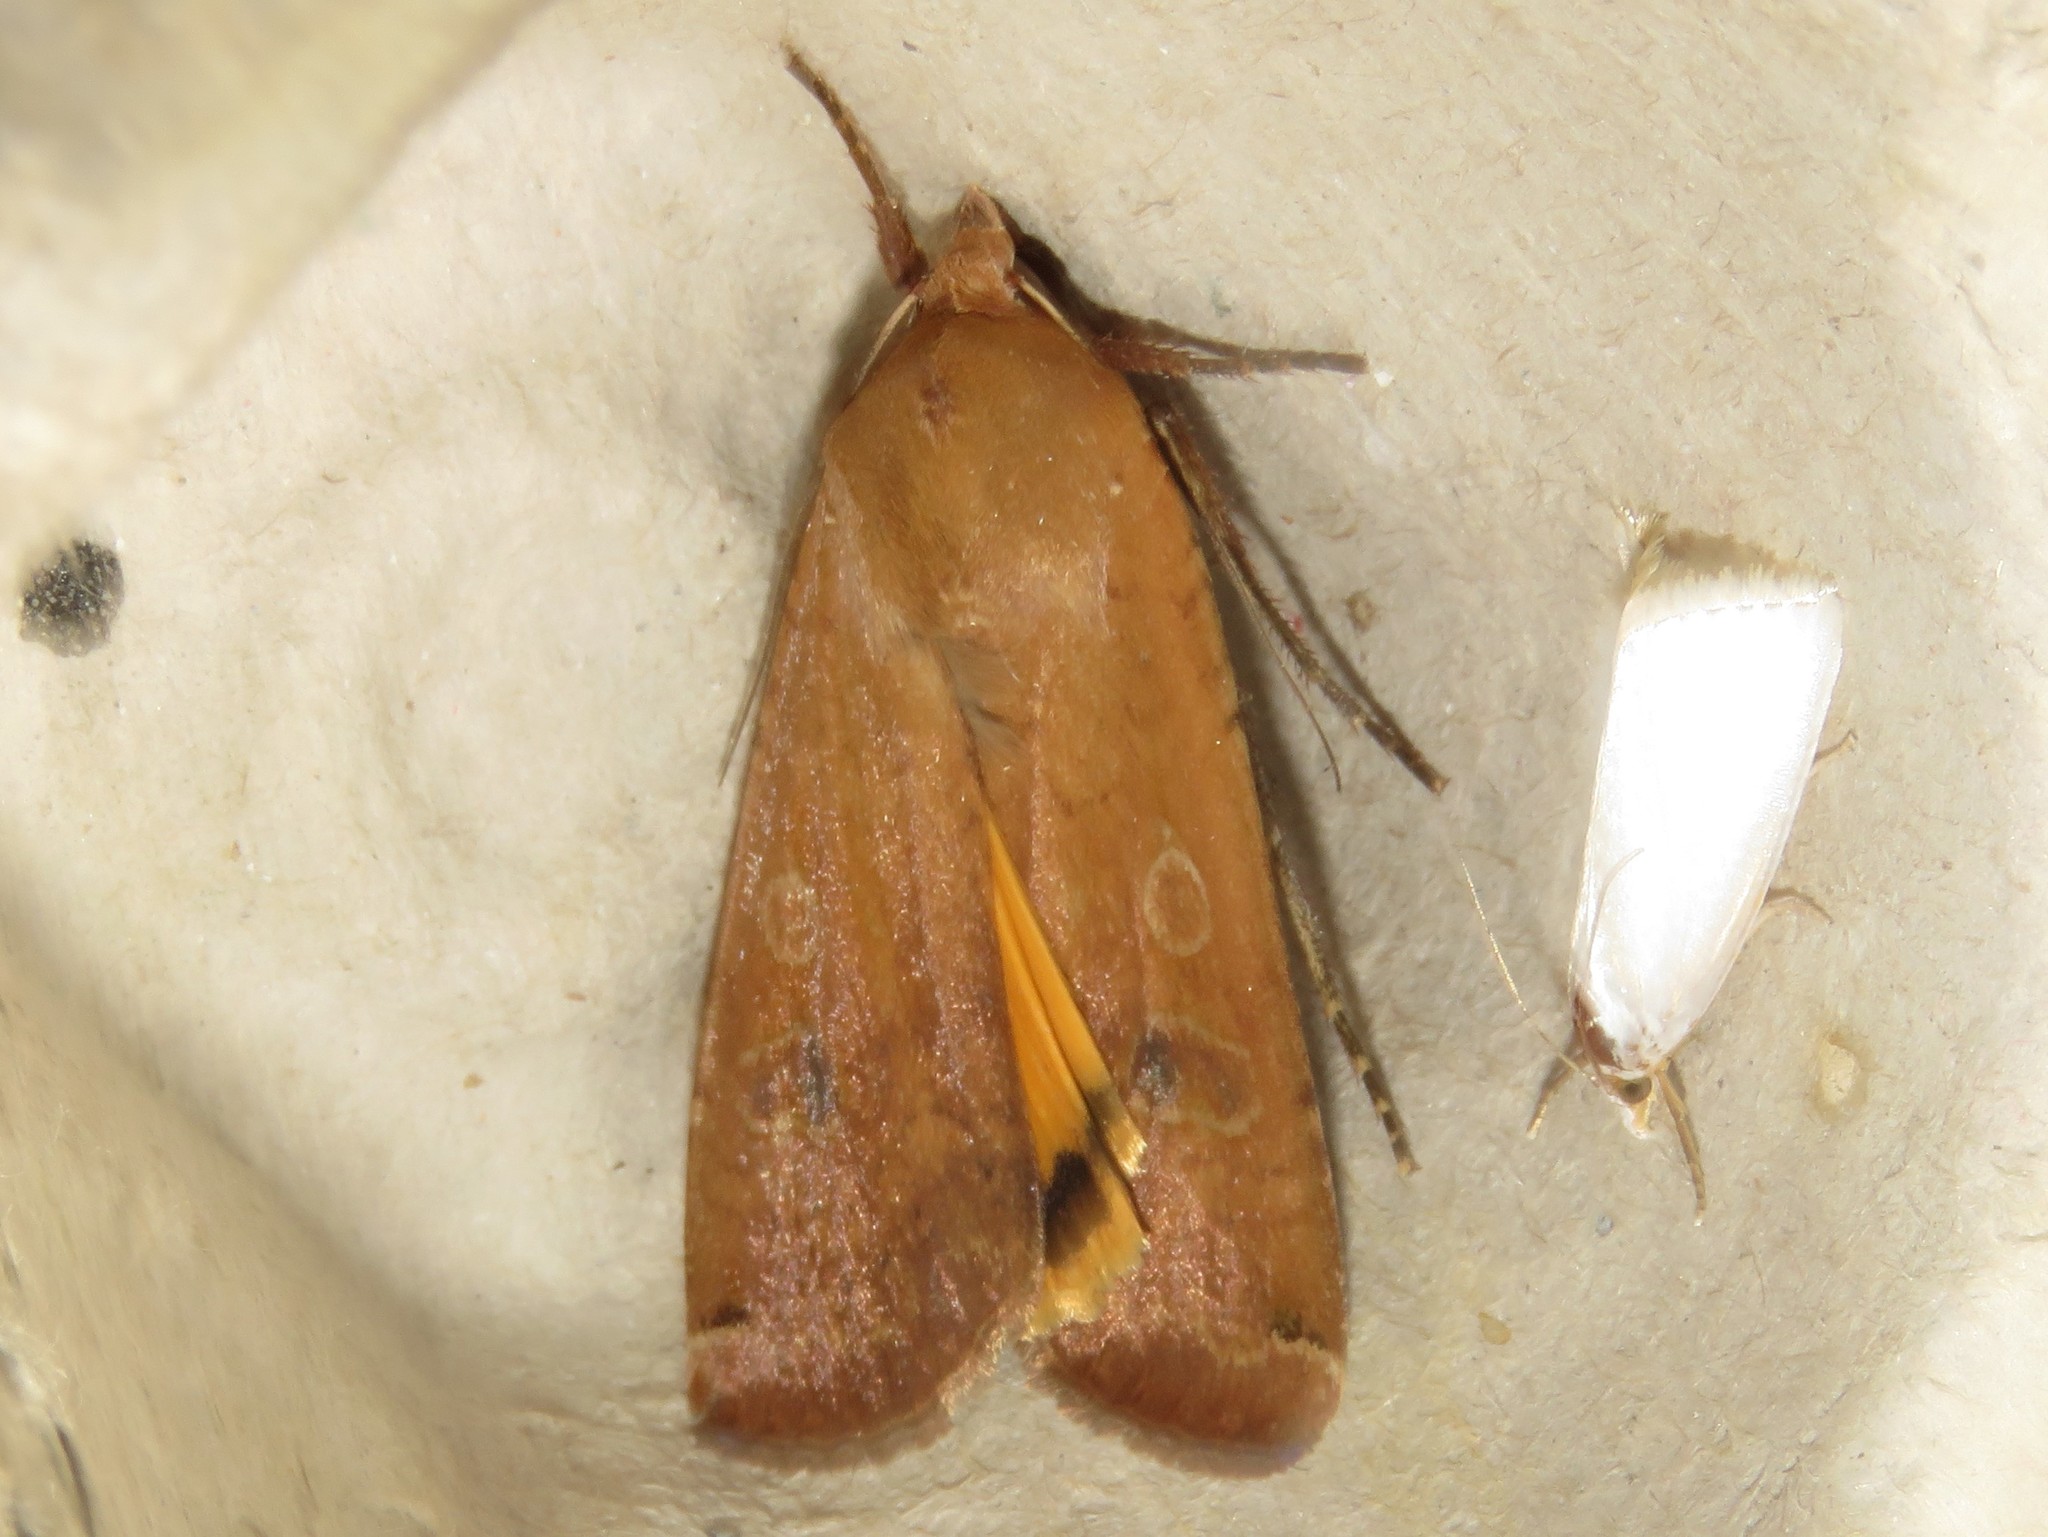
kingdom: Animalia
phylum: Arthropoda
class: Insecta
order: Lepidoptera
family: Noctuidae
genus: Noctua
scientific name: Noctua pronuba
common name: Large yellow underwing
